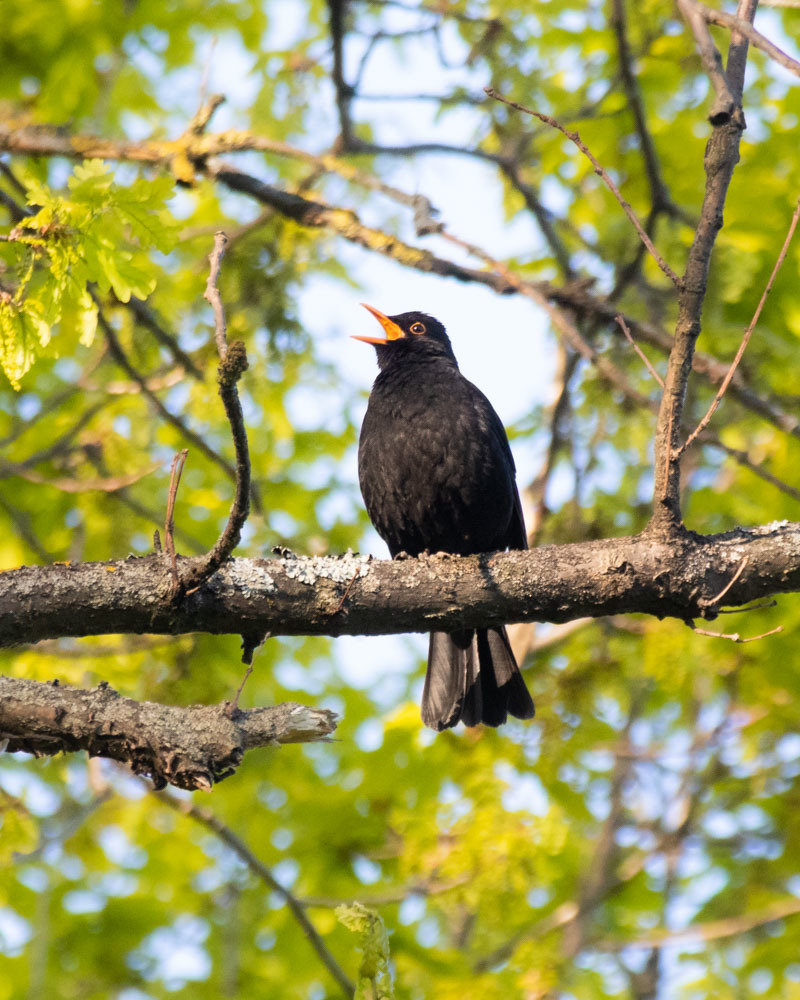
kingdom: Animalia
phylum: Chordata
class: Aves
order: Passeriformes
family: Turdidae
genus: Turdus
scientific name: Turdus merula
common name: Common blackbird
